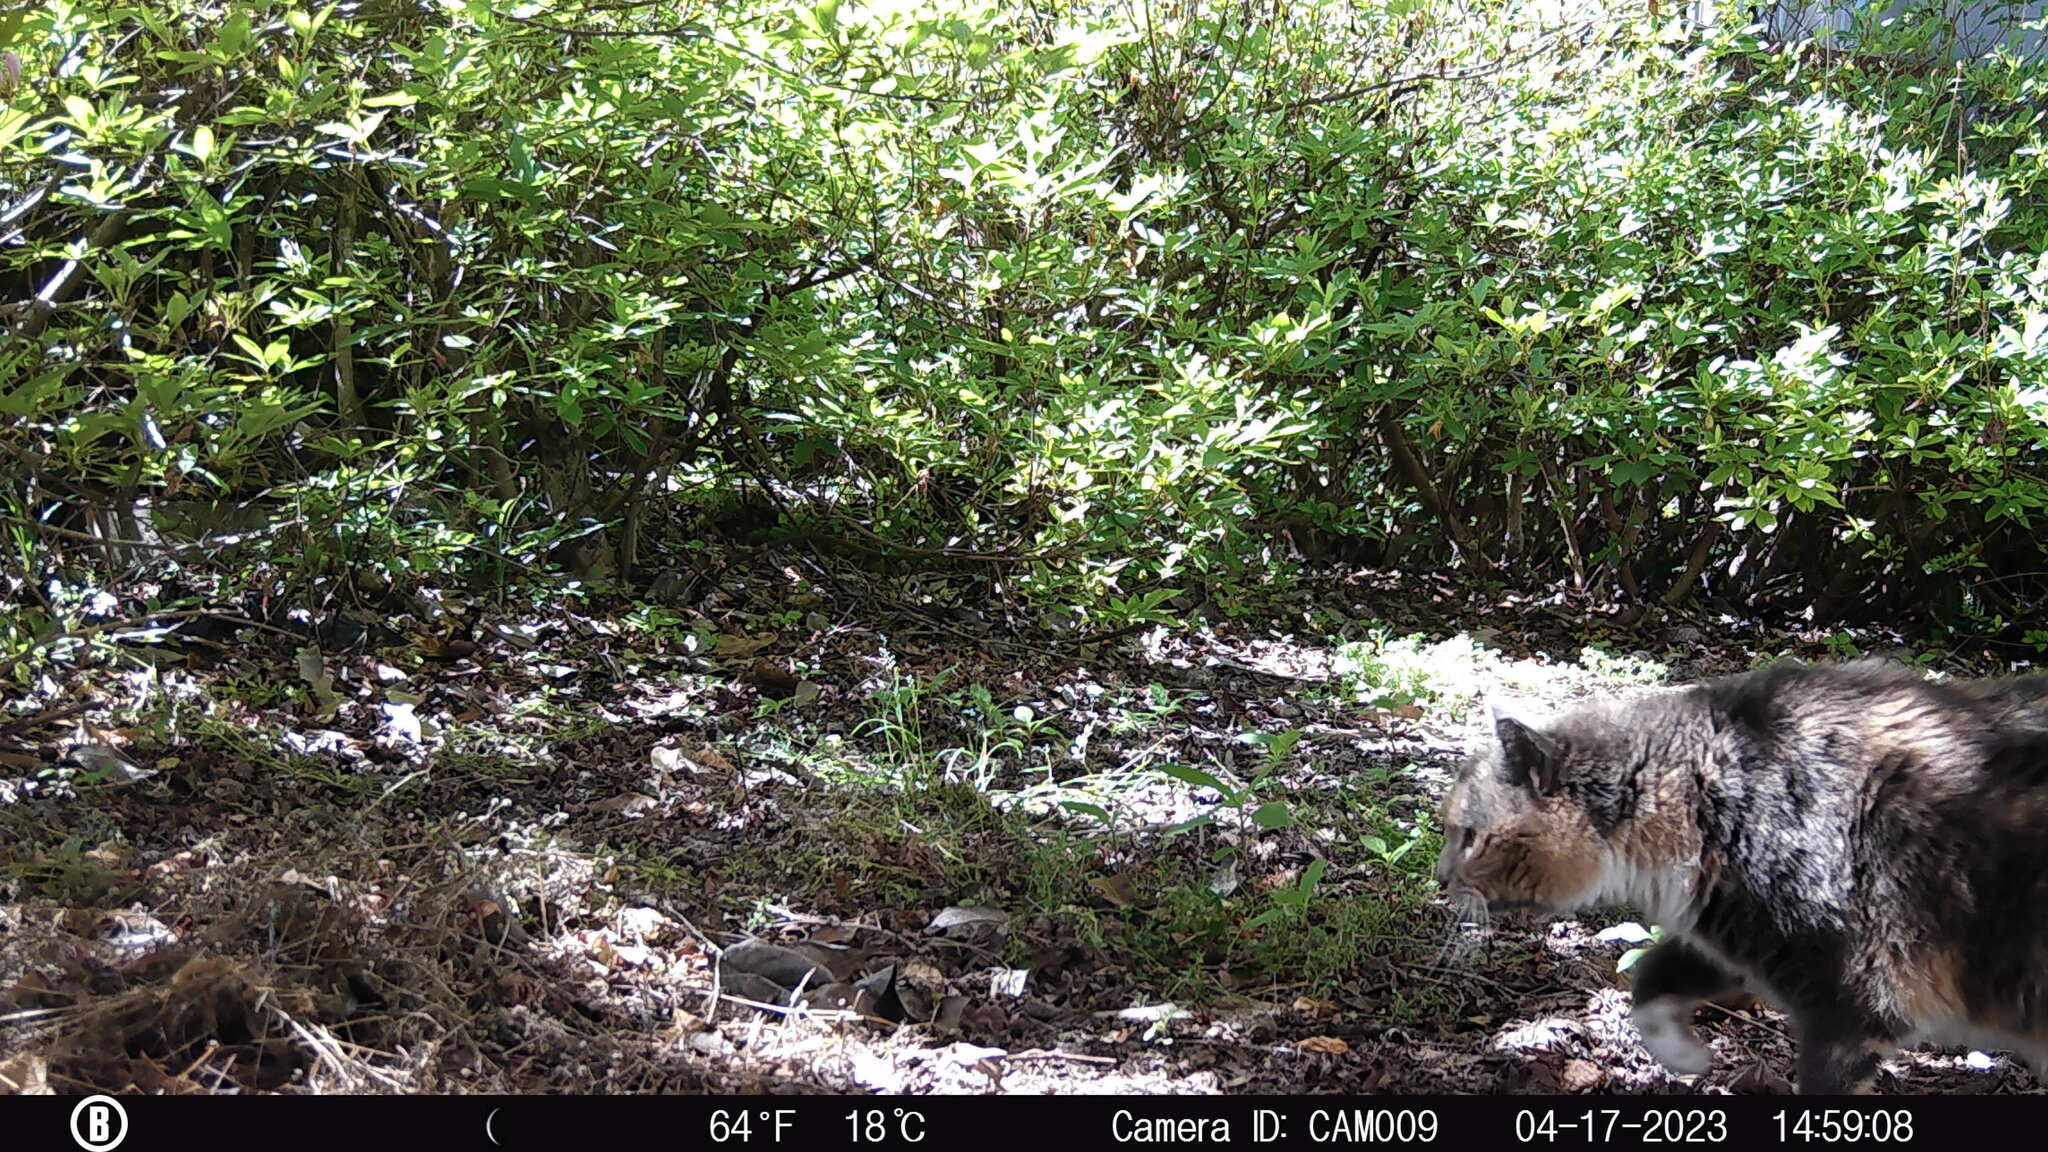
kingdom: Animalia
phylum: Chordata
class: Mammalia
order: Carnivora
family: Felidae
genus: Felis
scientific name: Felis catus
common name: Domestic cat
